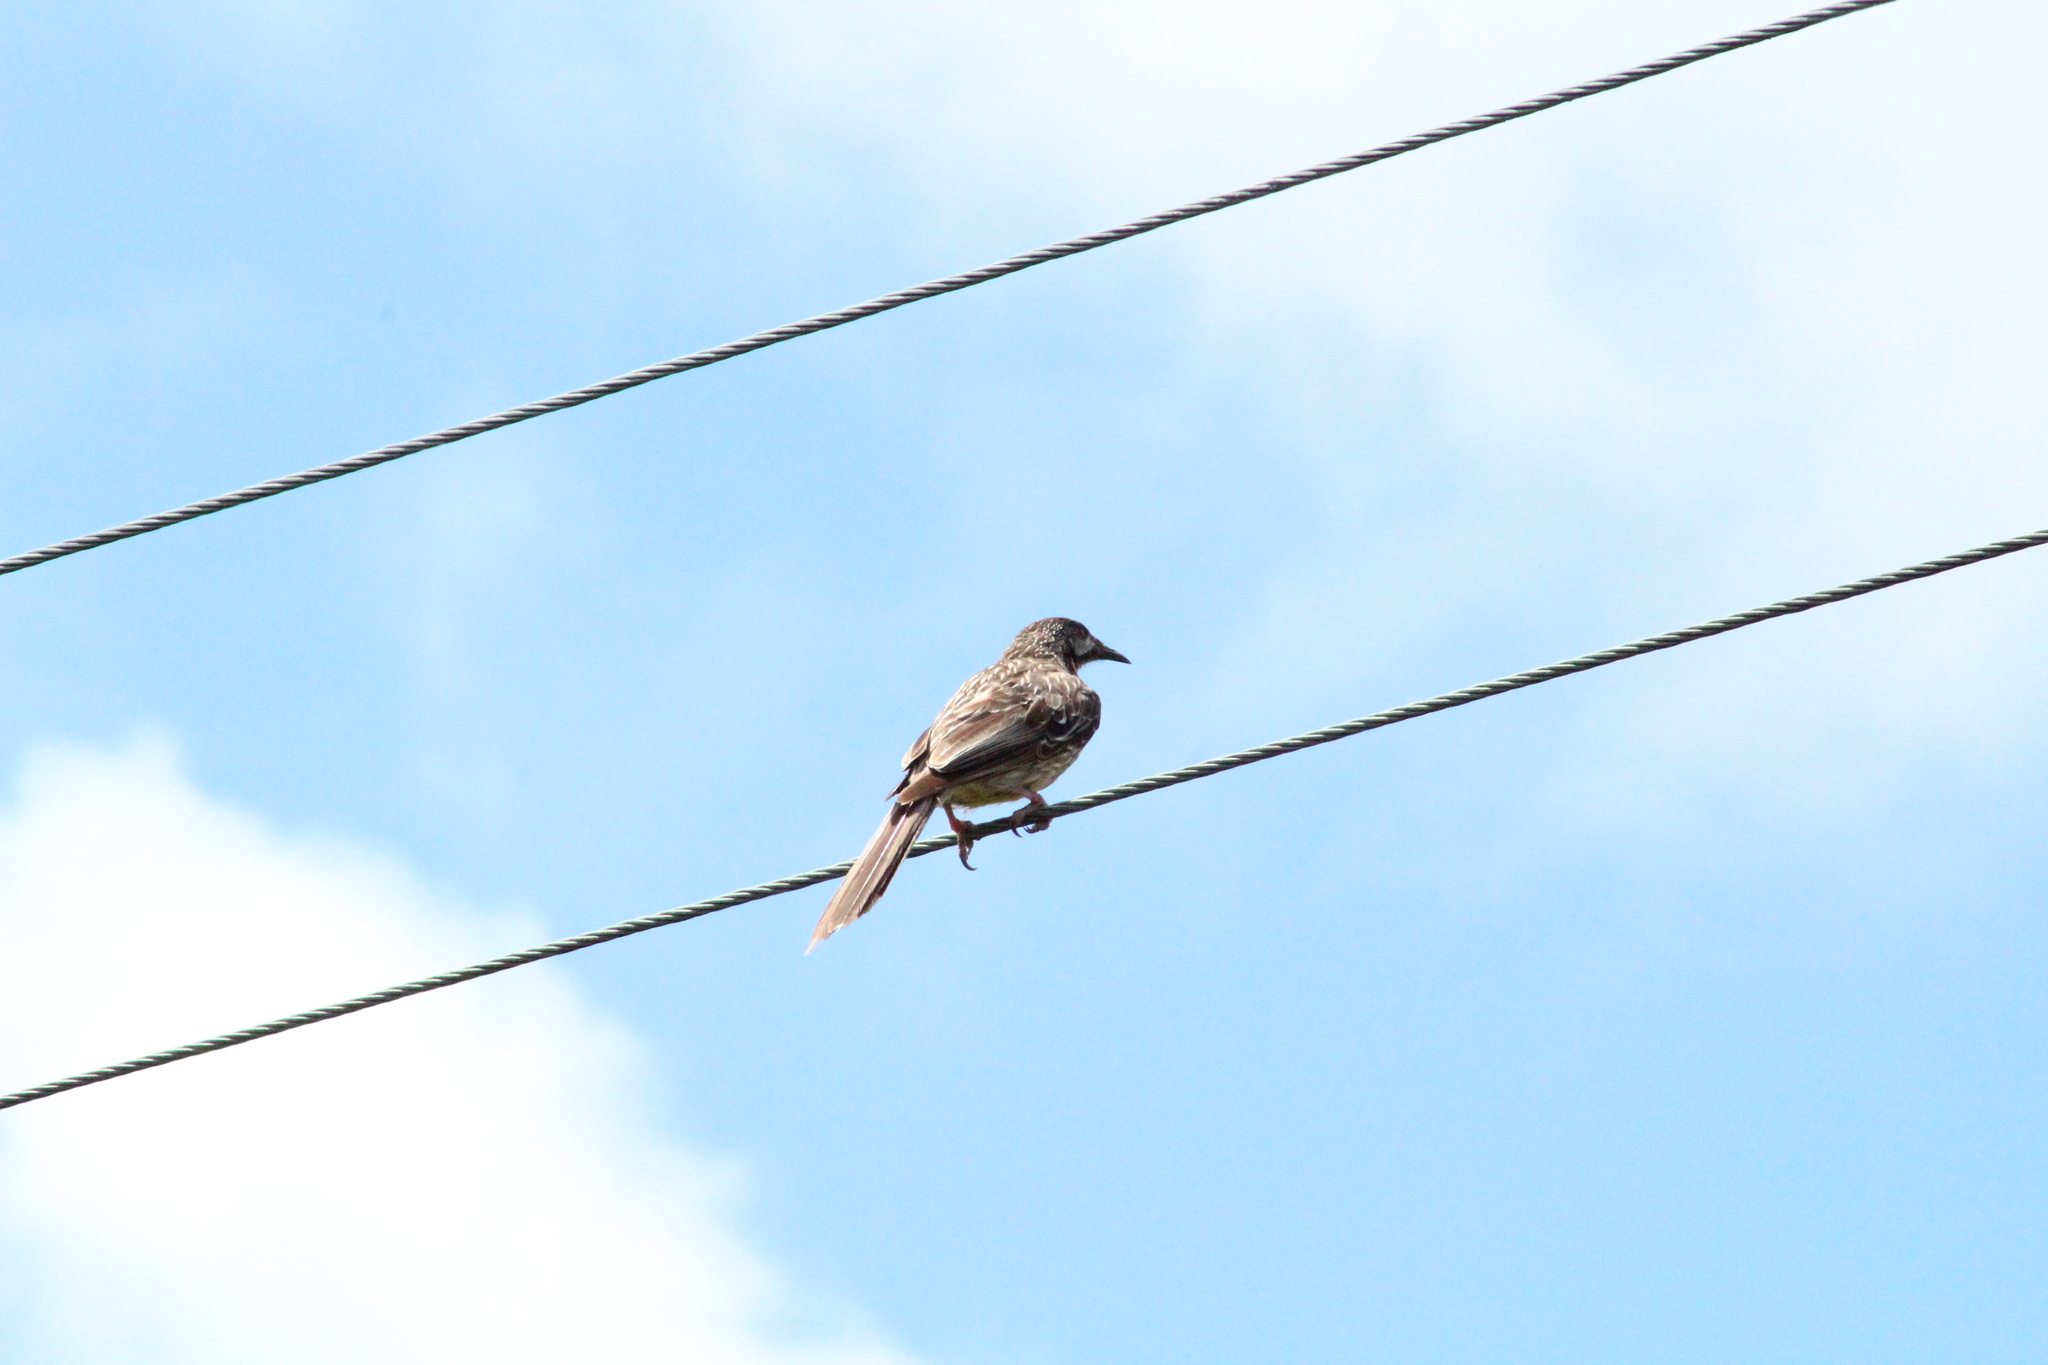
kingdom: Animalia
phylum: Chordata
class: Aves
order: Passeriformes
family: Meliphagidae
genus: Anthochaera
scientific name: Anthochaera carunculata
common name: Red wattlebird
